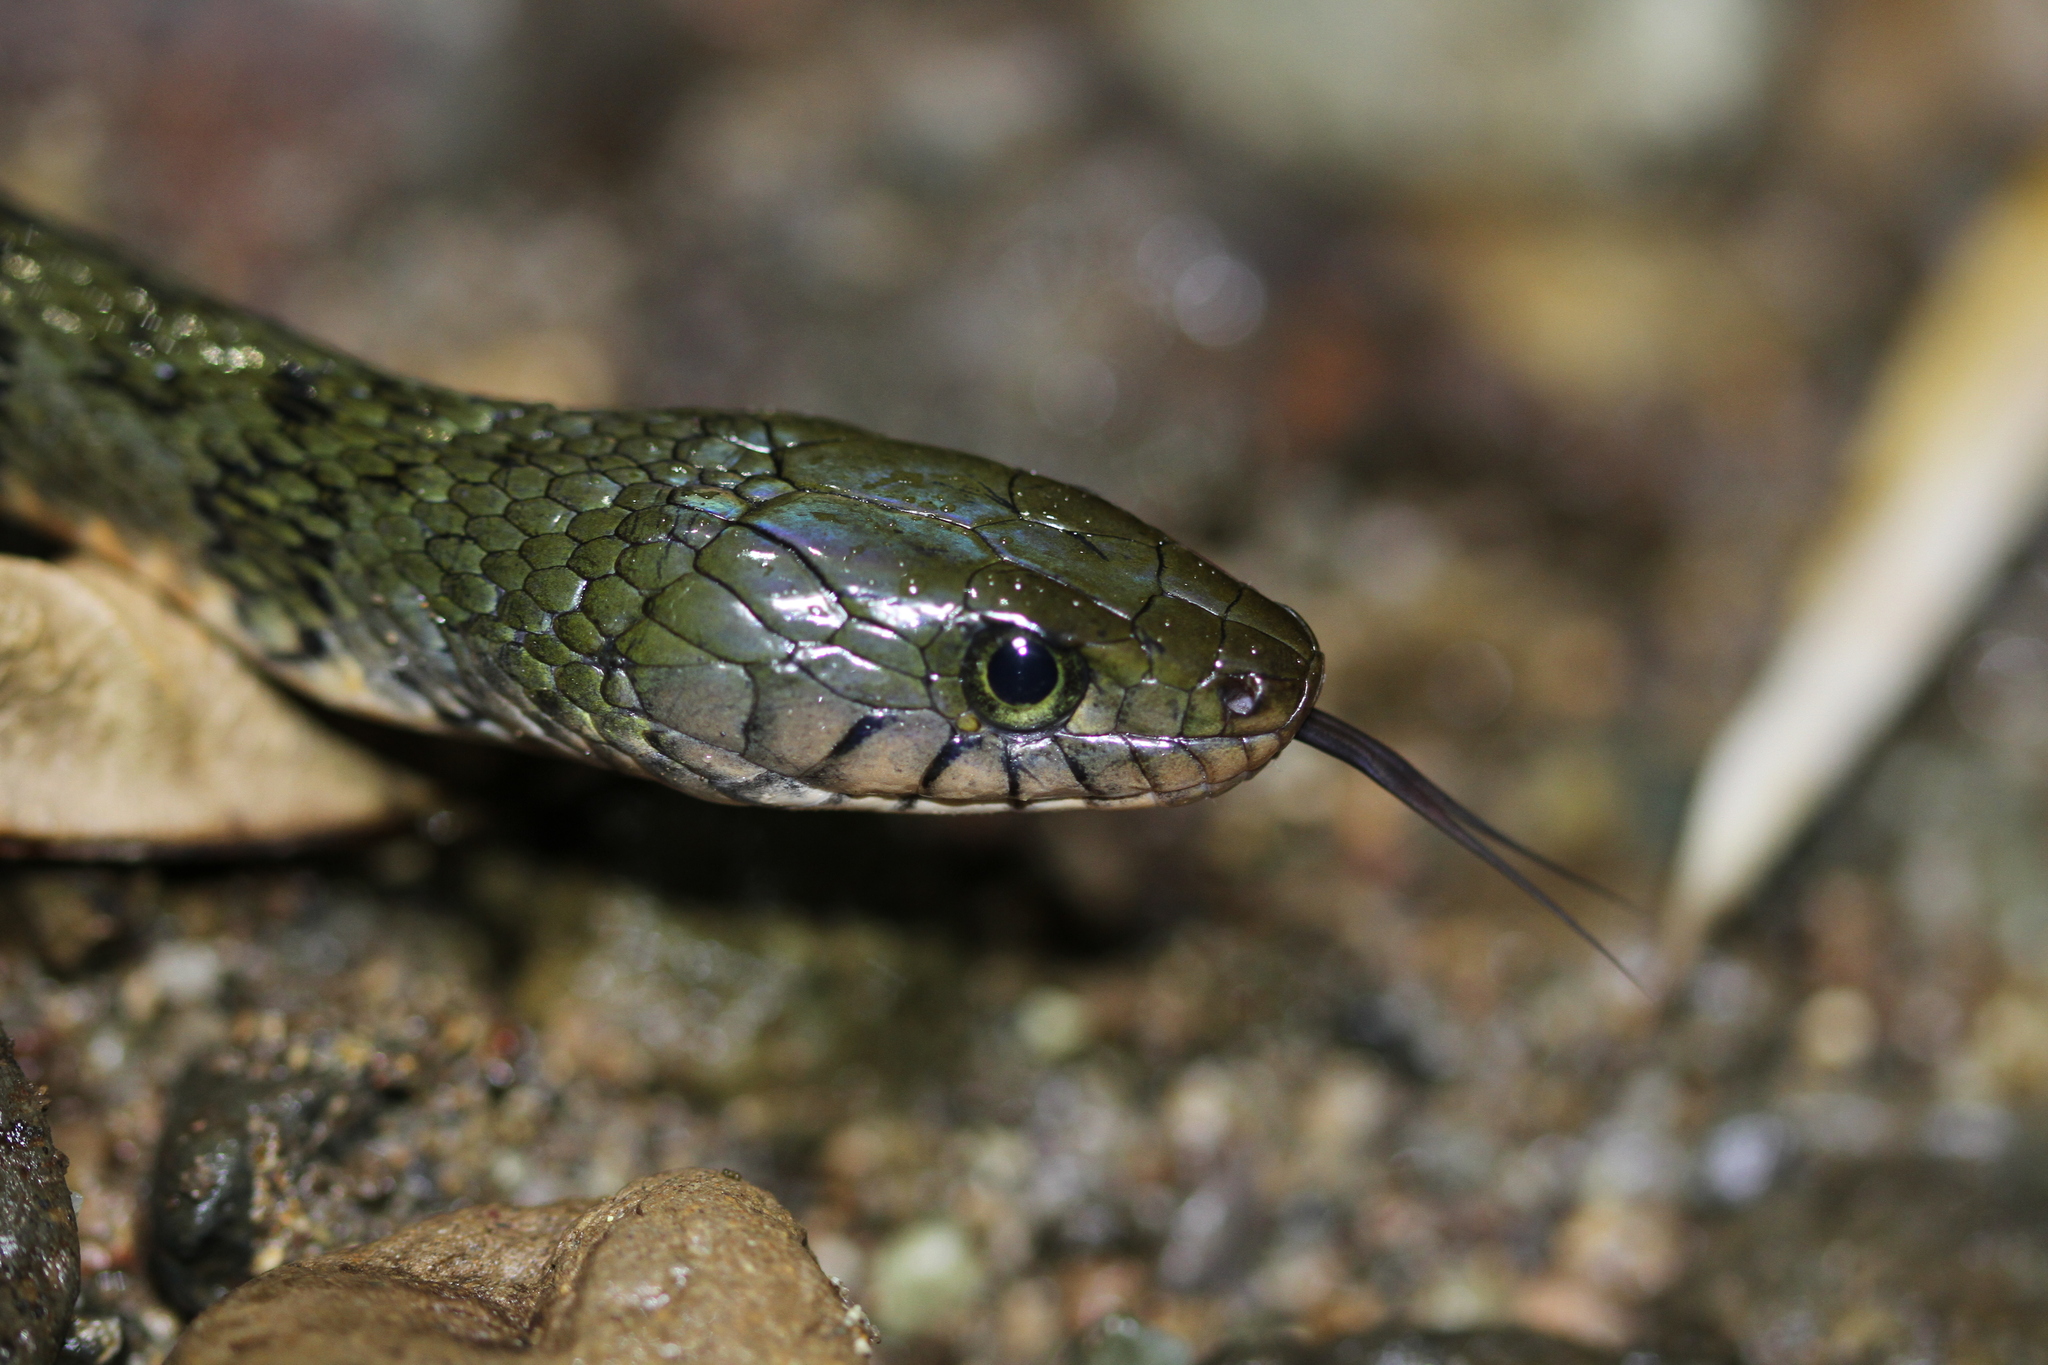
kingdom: Animalia
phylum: Chordata
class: Squamata
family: Colubridae
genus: Xenochrophis
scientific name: Xenochrophis trianguligerus
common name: Triangle keelback
